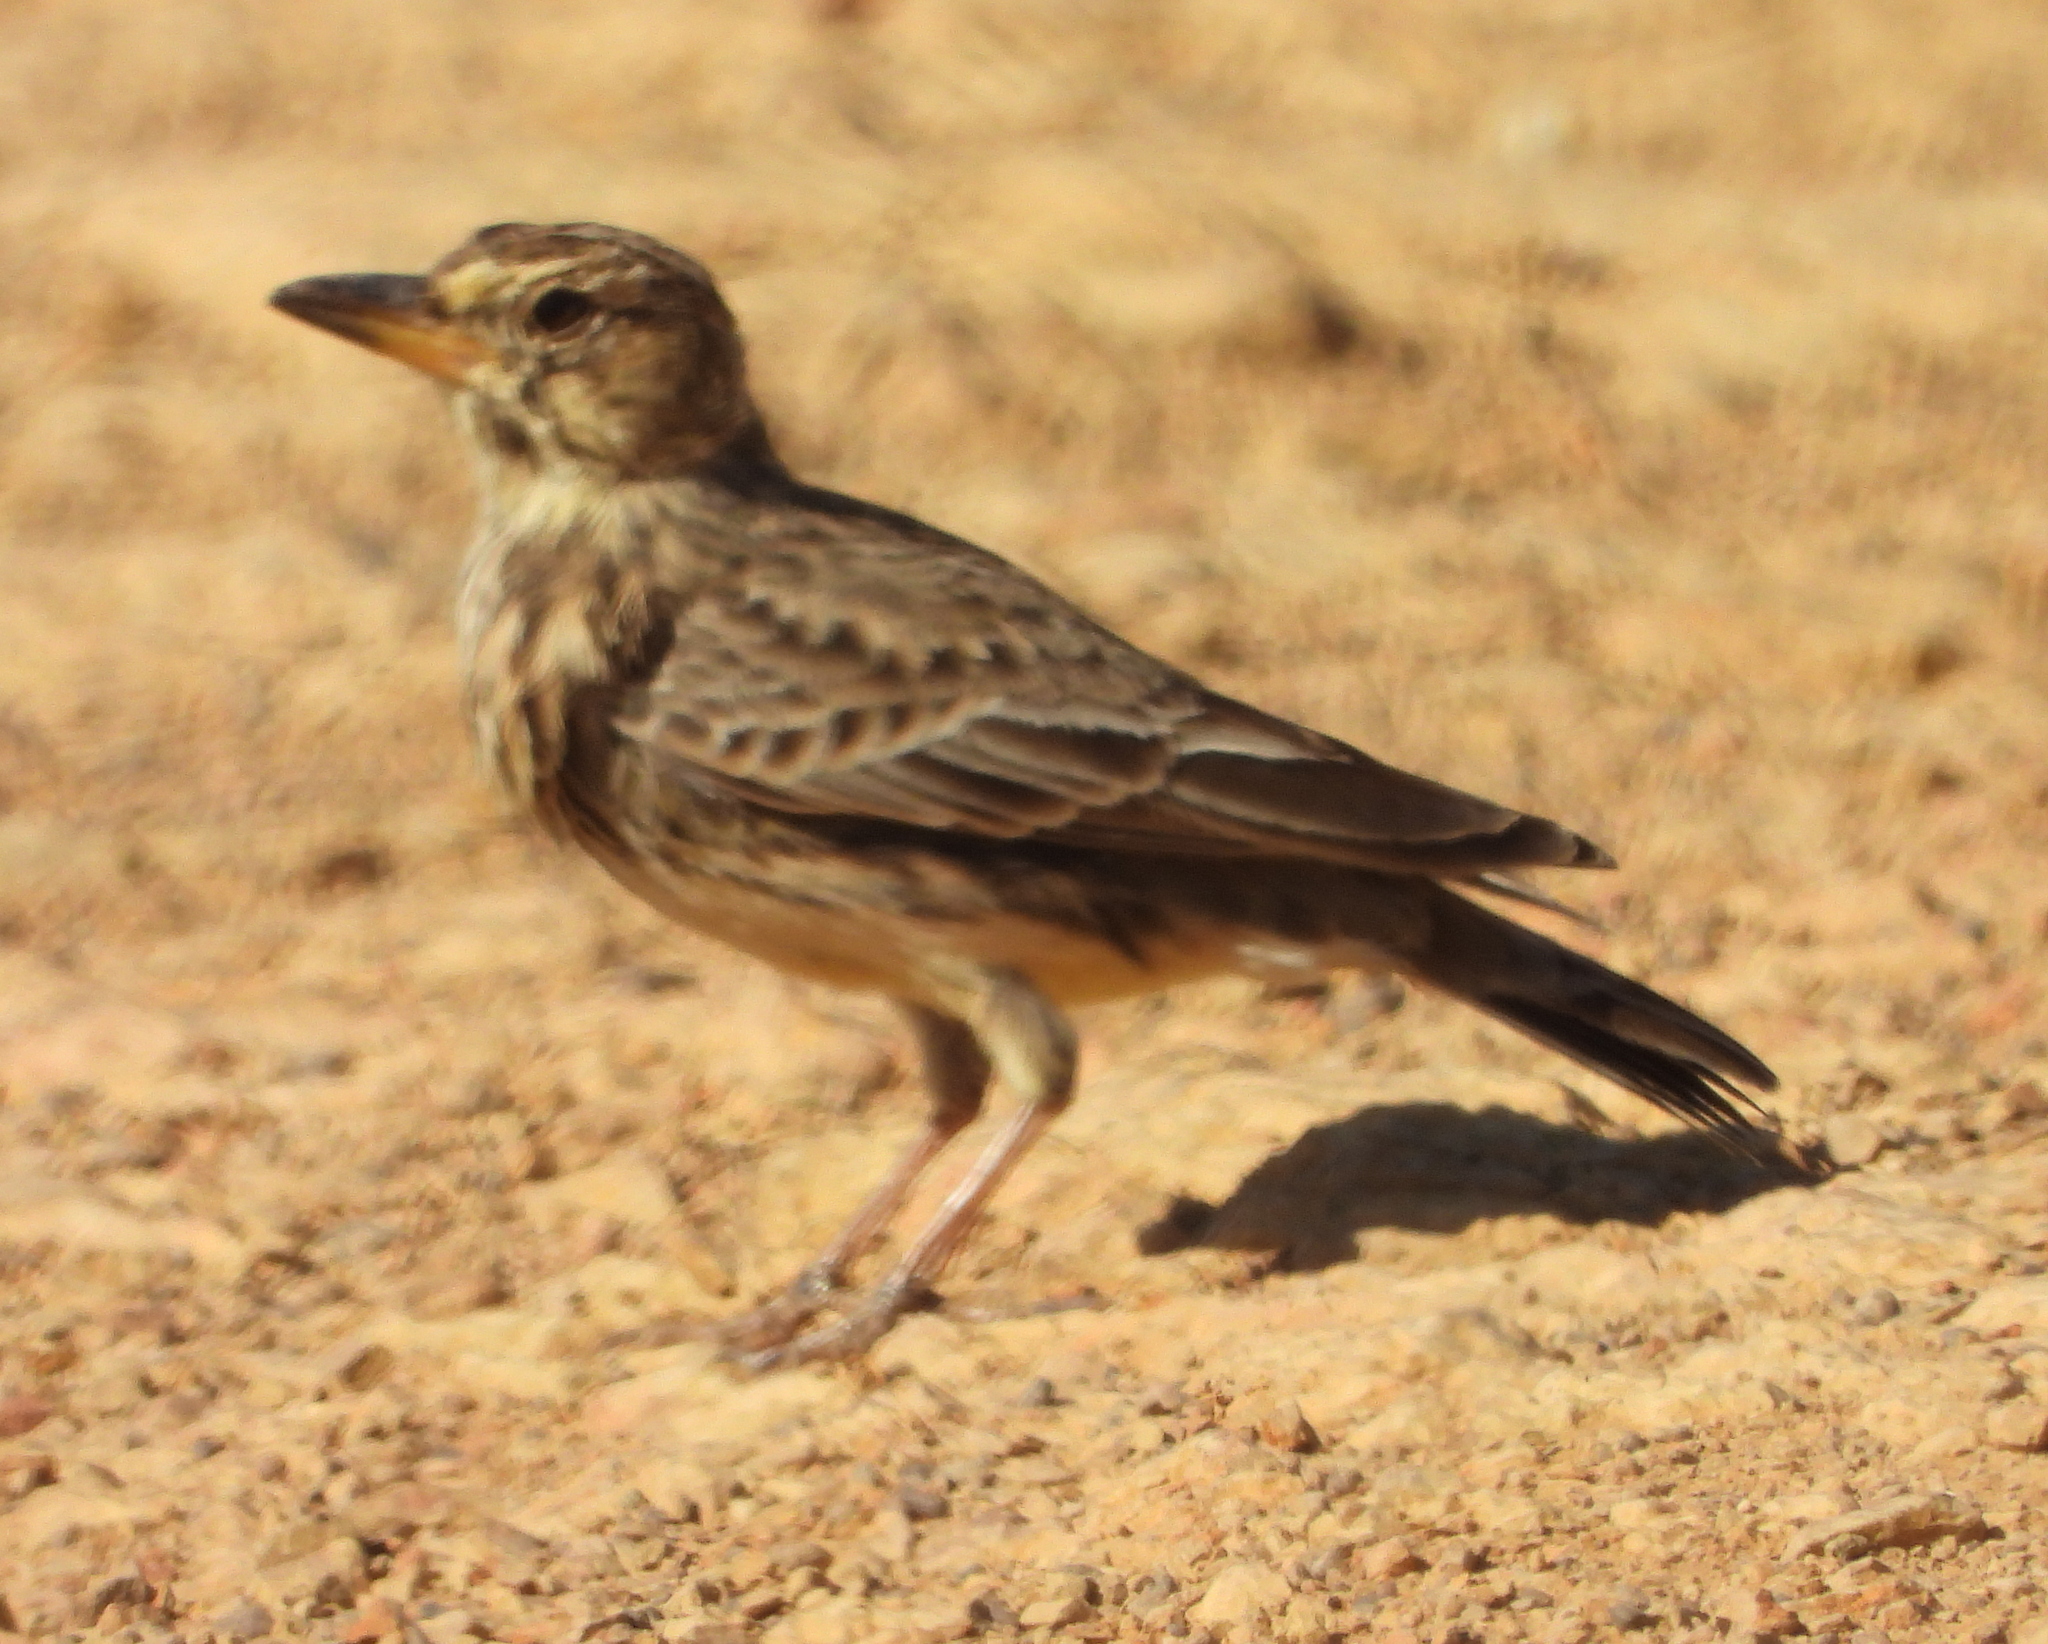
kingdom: Animalia
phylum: Chordata
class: Aves
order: Passeriformes
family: Alaudidae
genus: Galerida
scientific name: Galerida magnirostris
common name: Large-billed lark
